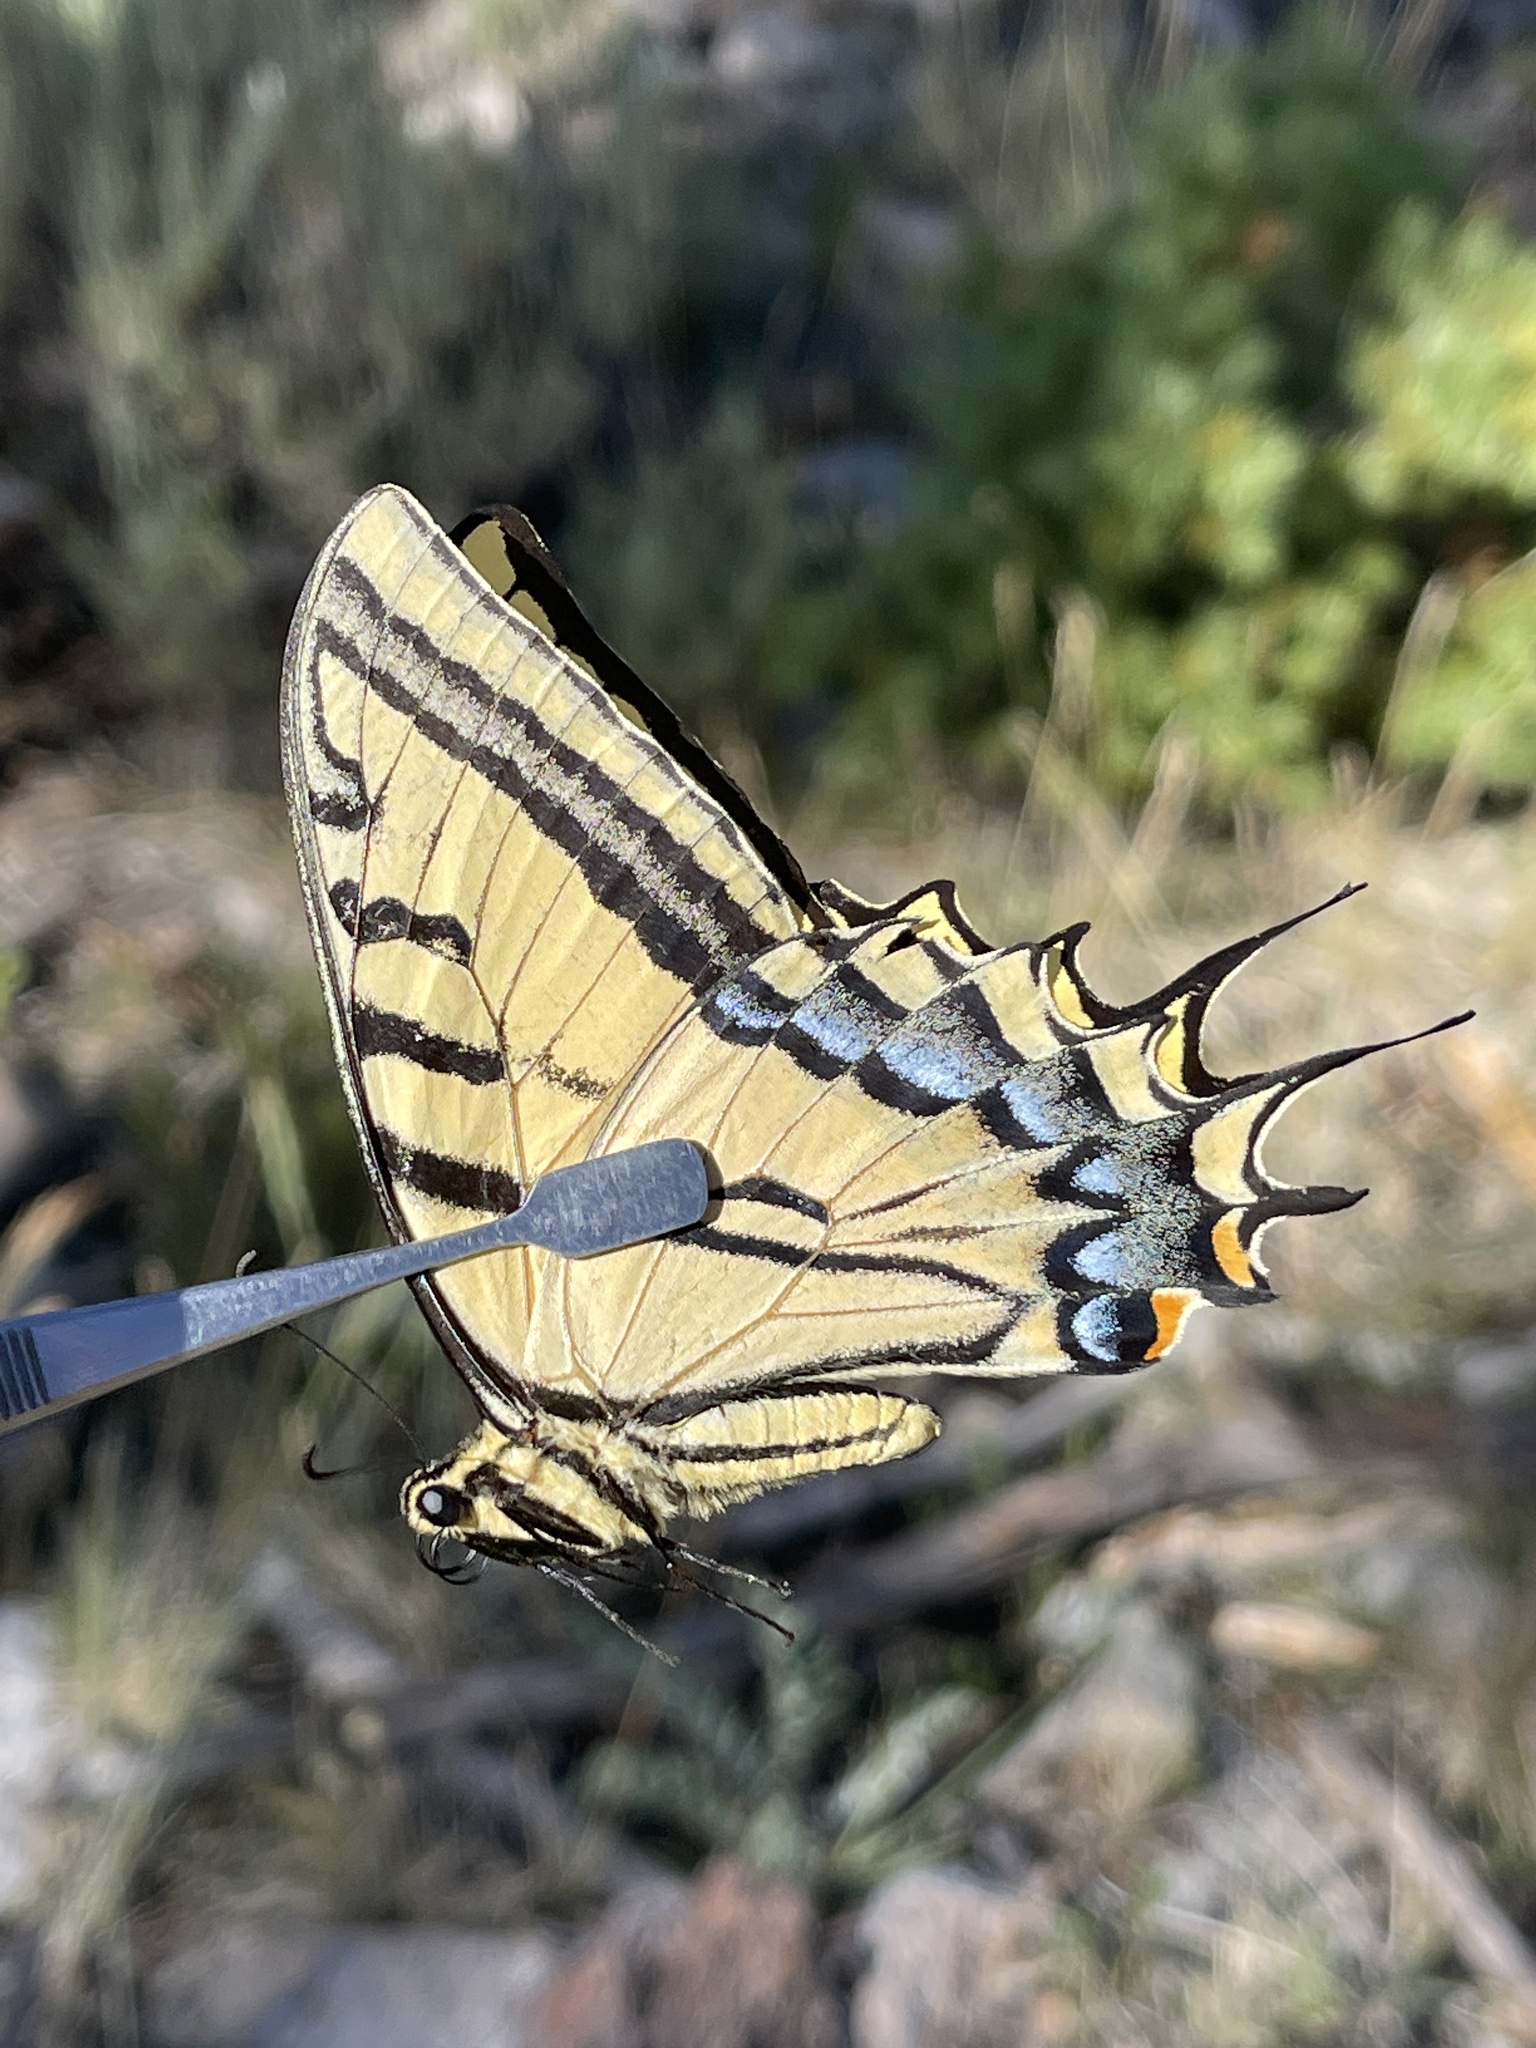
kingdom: Animalia
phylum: Arthropoda
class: Insecta
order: Lepidoptera
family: Papilionidae
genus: Papilio
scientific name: Papilio multicaudata
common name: Two-tailed tiger swallowtail
